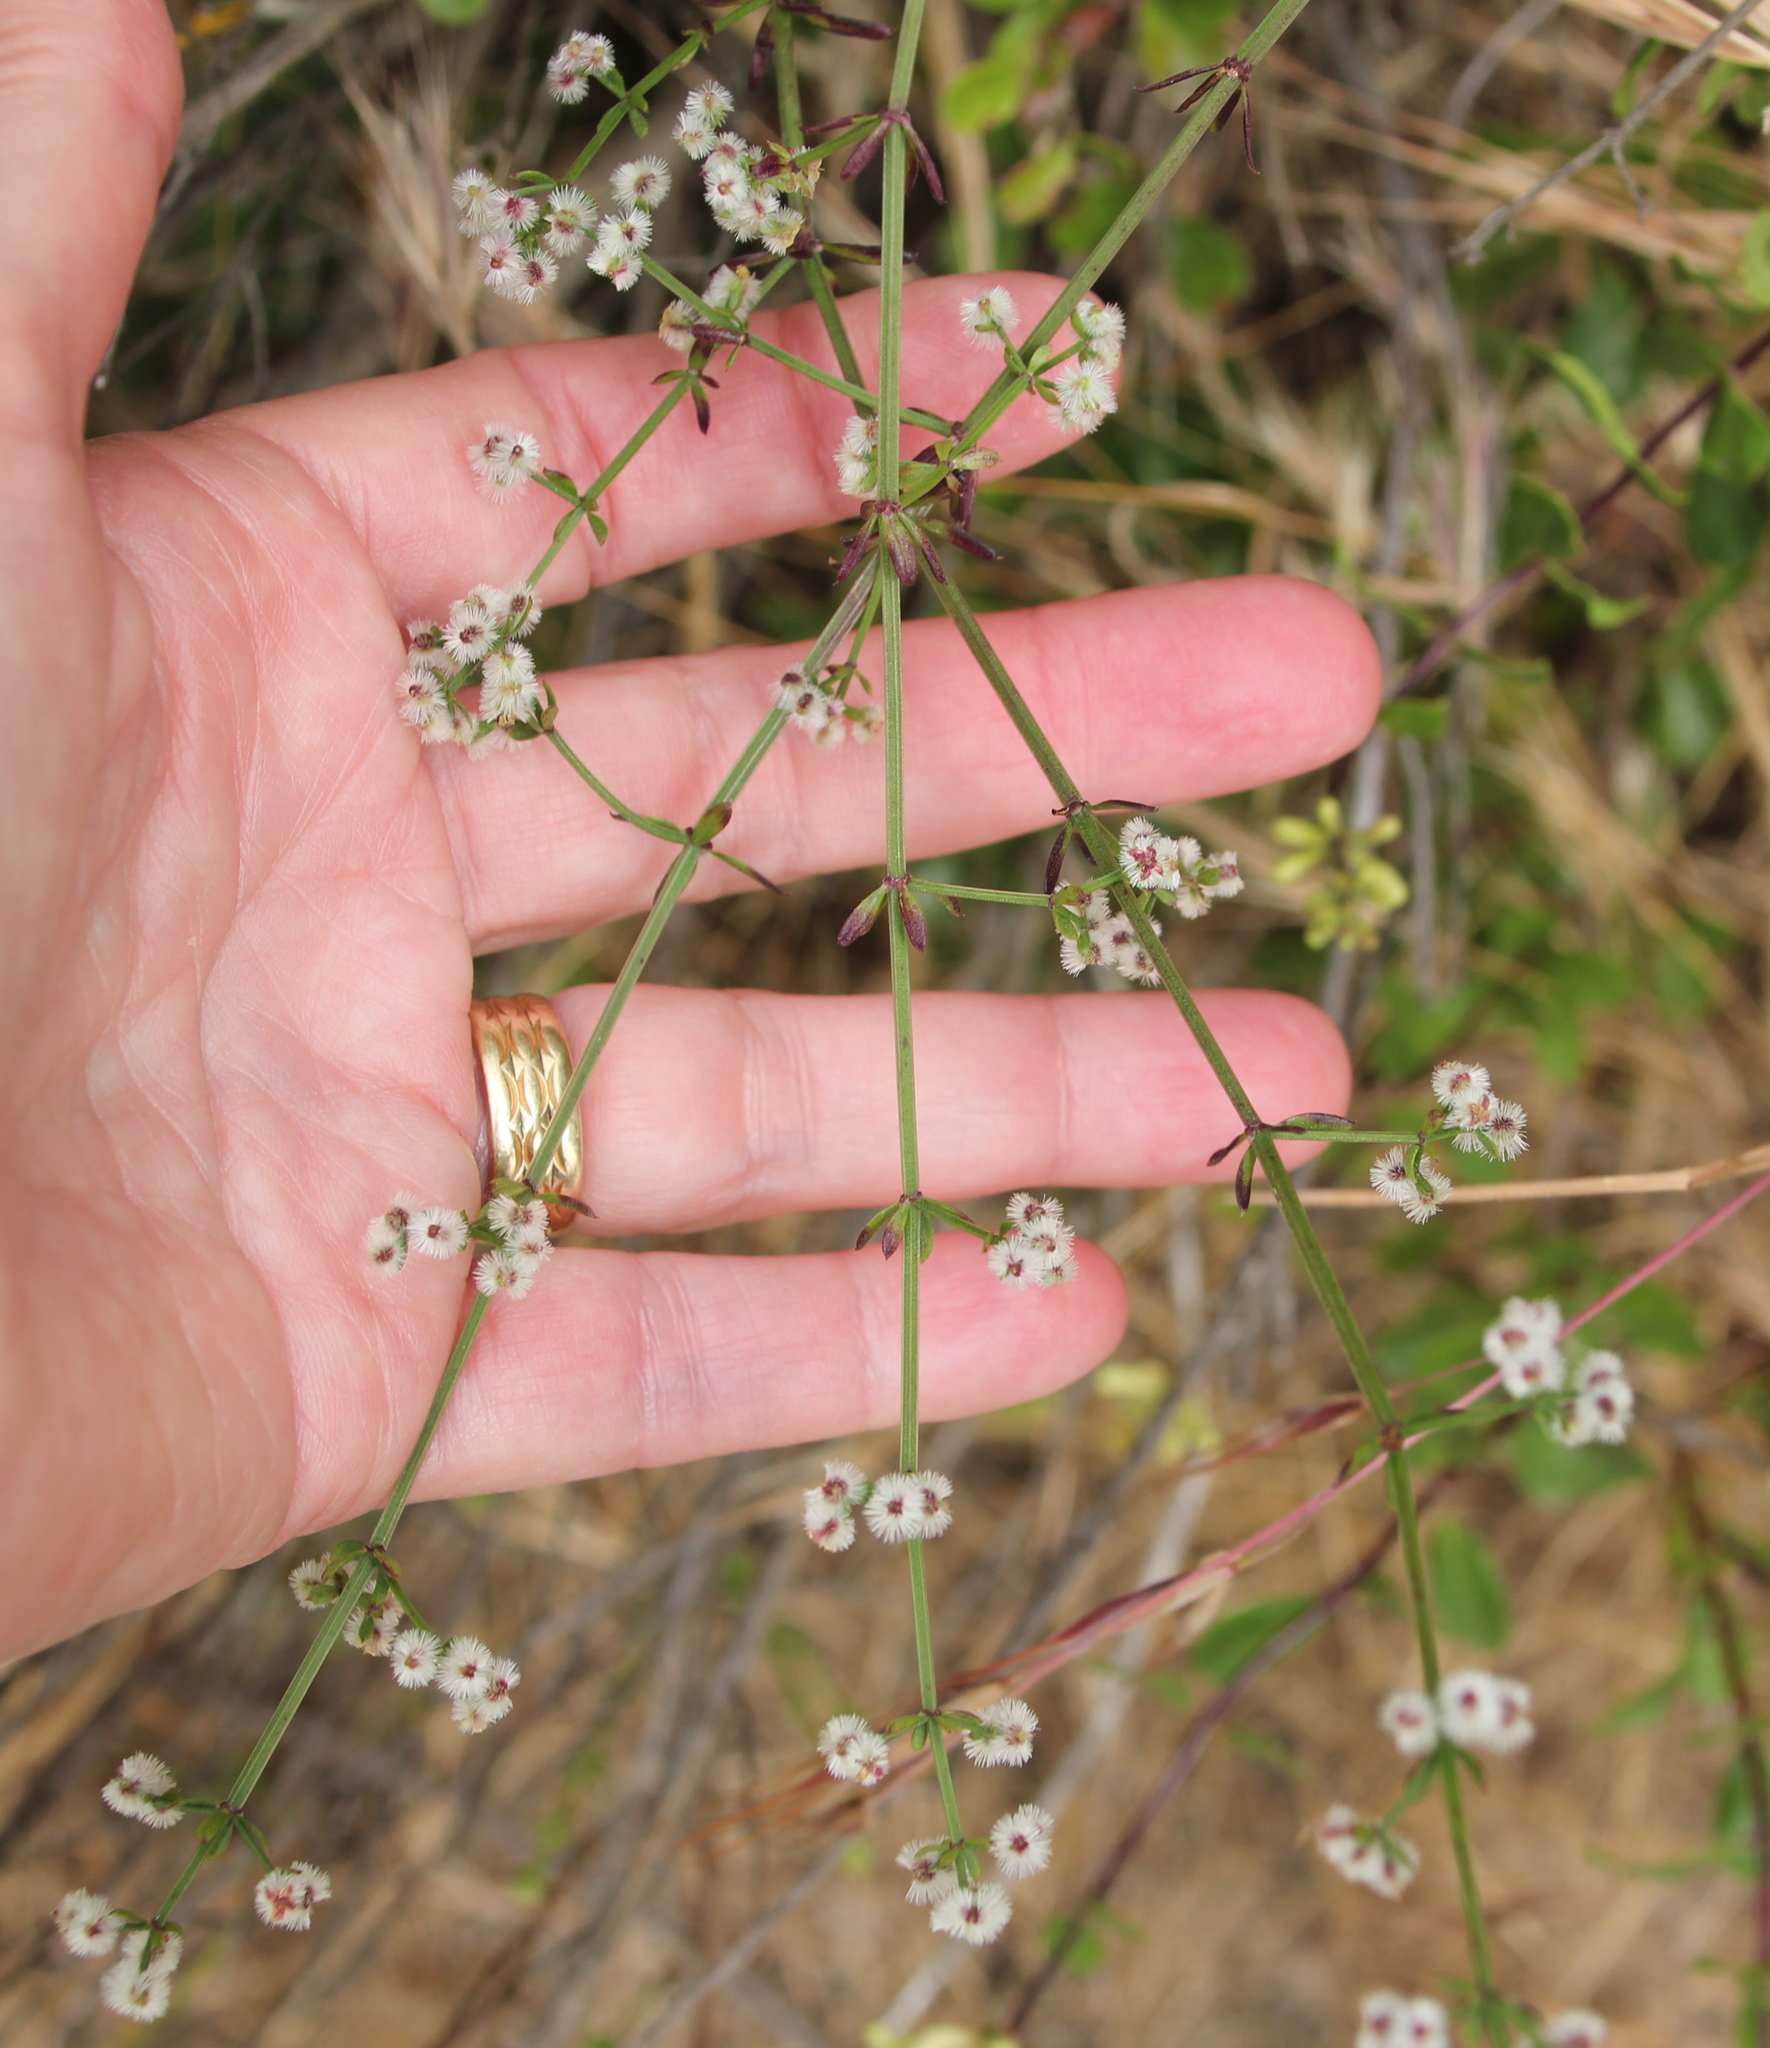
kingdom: Plantae
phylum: Tracheophyta
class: Magnoliopsida
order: Gentianales
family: Rubiaceae
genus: Galium
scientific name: Galium angustifolium
